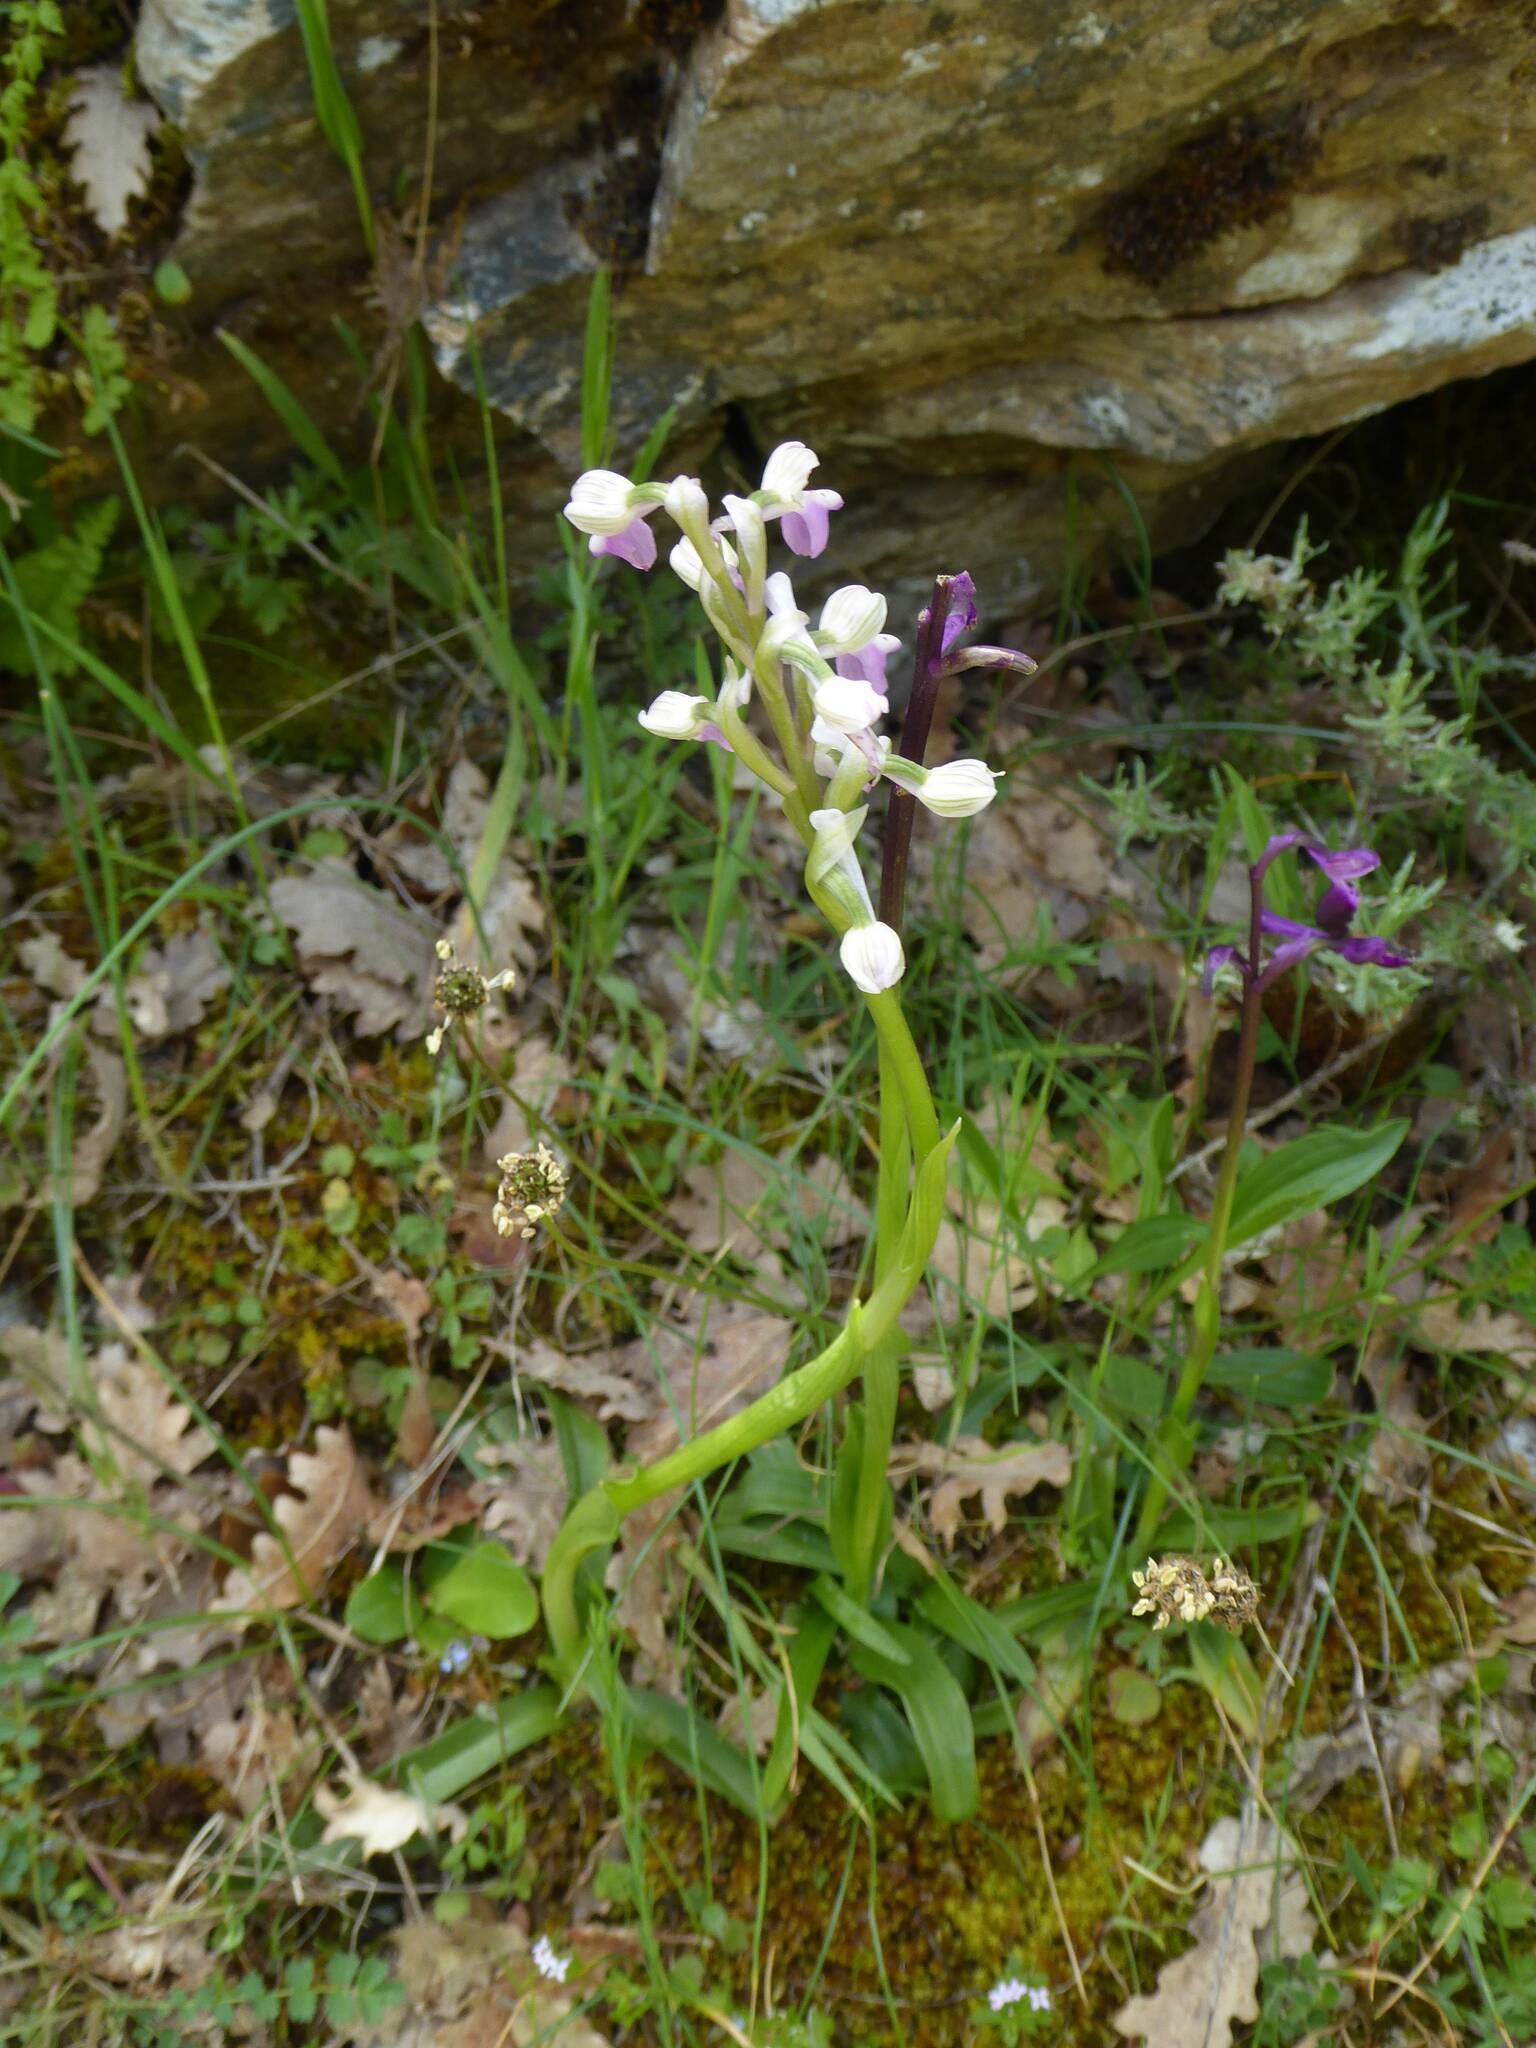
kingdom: Plantae
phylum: Tracheophyta
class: Liliopsida
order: Asparagales
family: Orchidaceae
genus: Anacamptis
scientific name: Anacamptis morio
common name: Green-winged orchid
